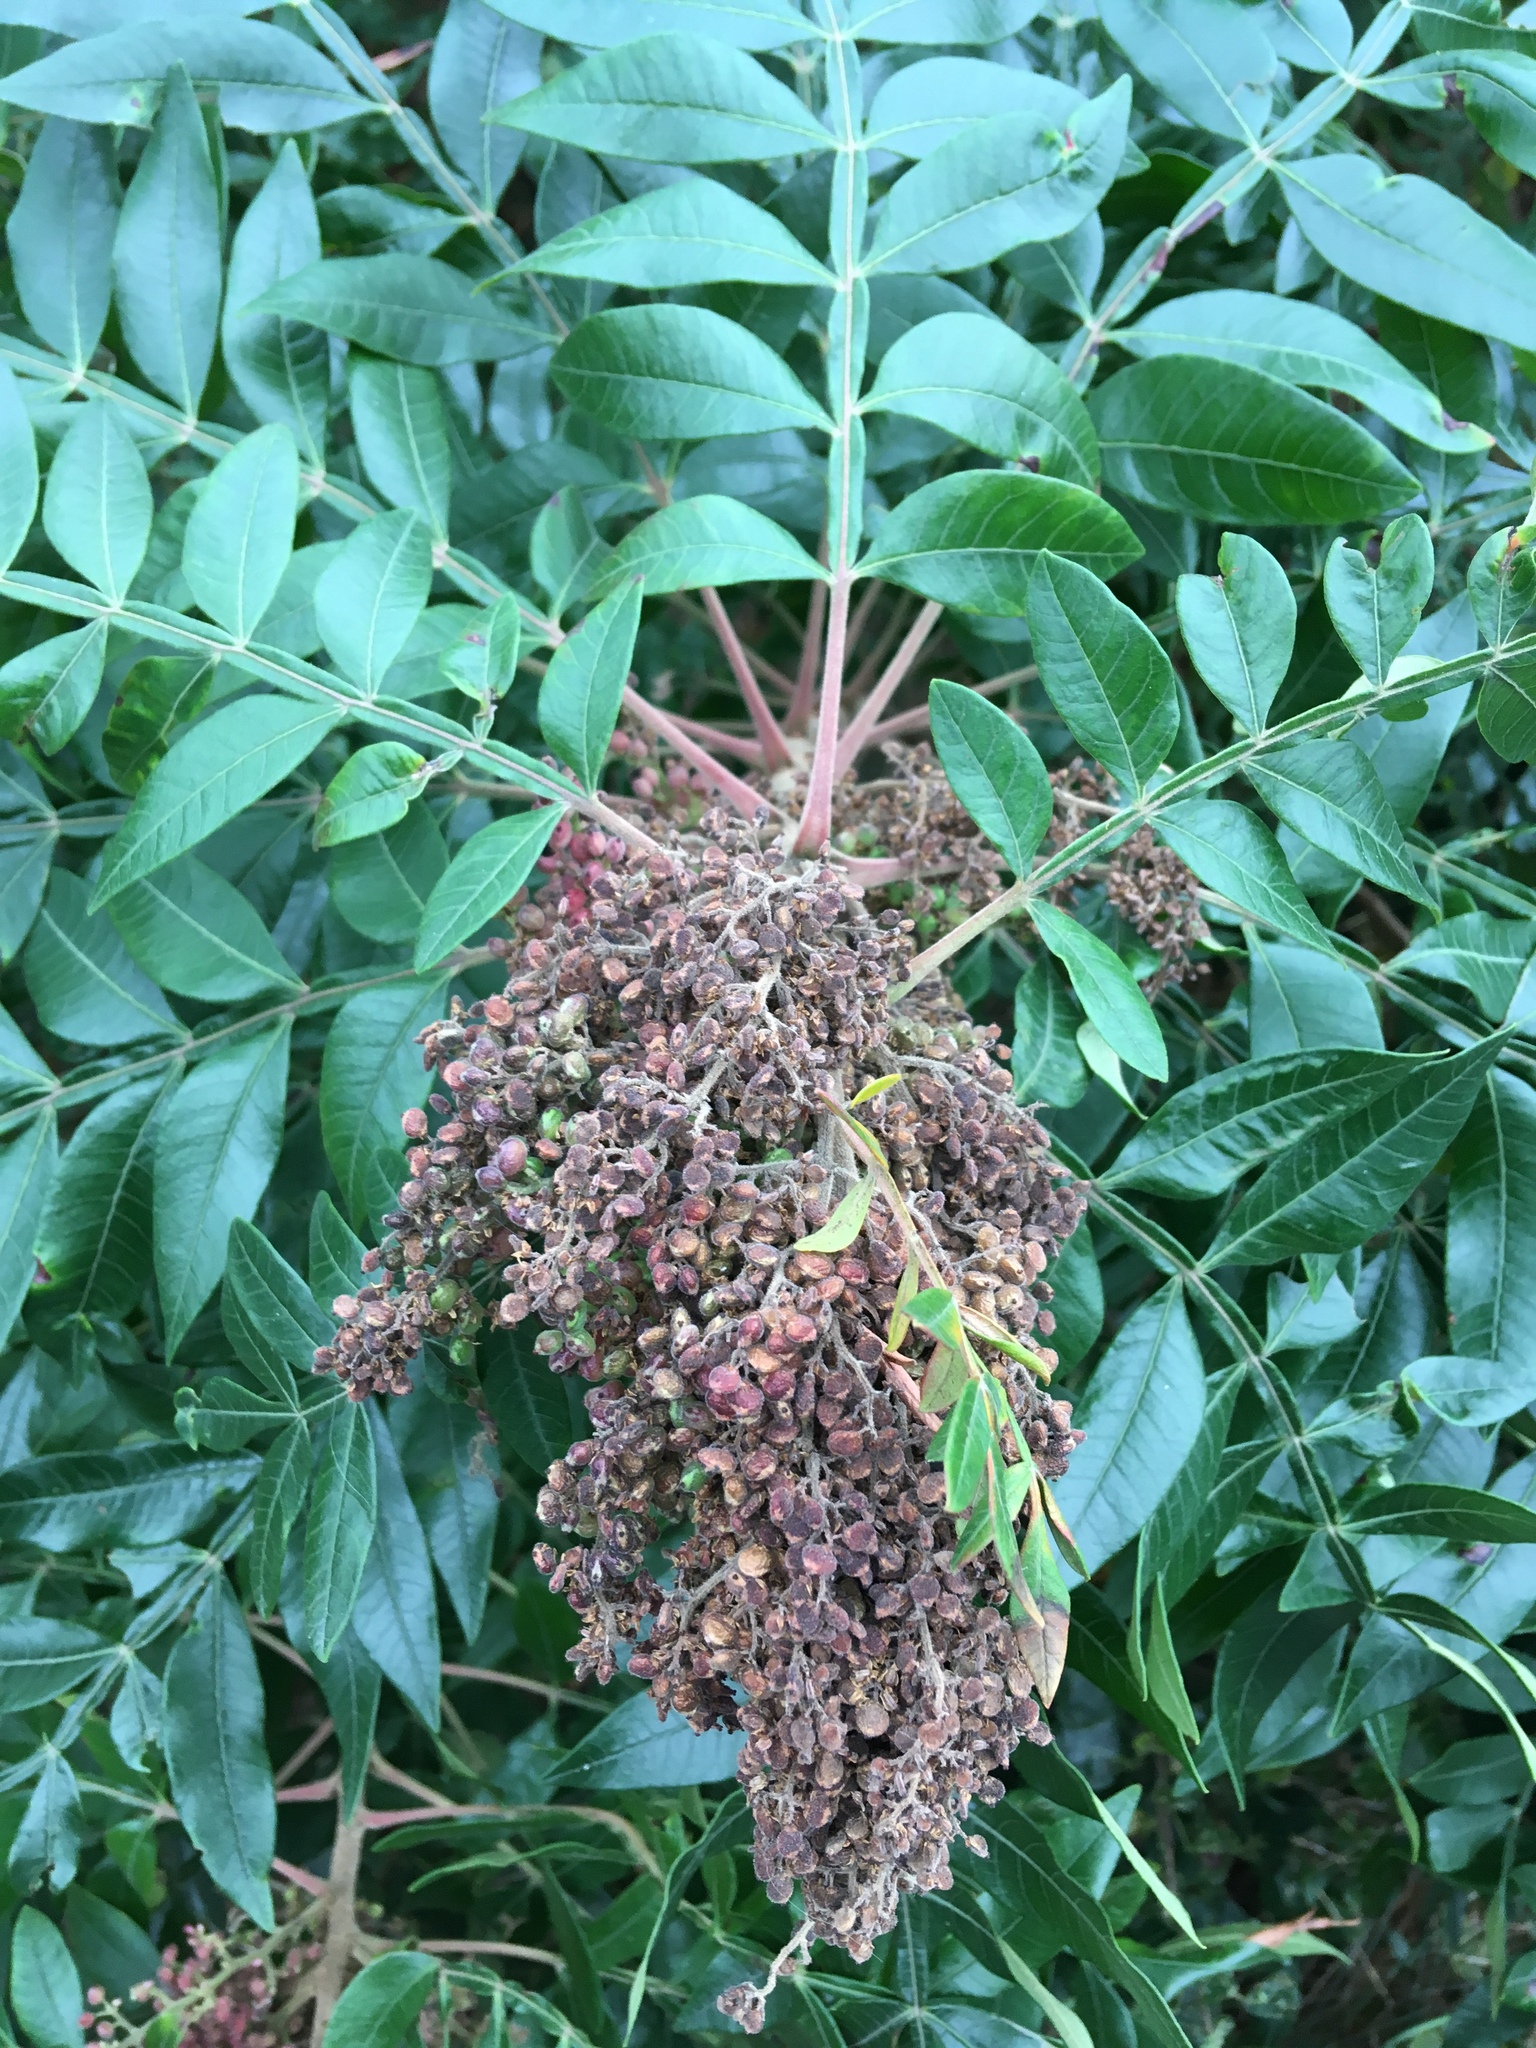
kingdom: Plantae
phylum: Tracheophyta
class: Magnoliopsida
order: Sapindales
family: Anacardiaceae
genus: Rhus
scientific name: Rhus copallina
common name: Shining sumac
